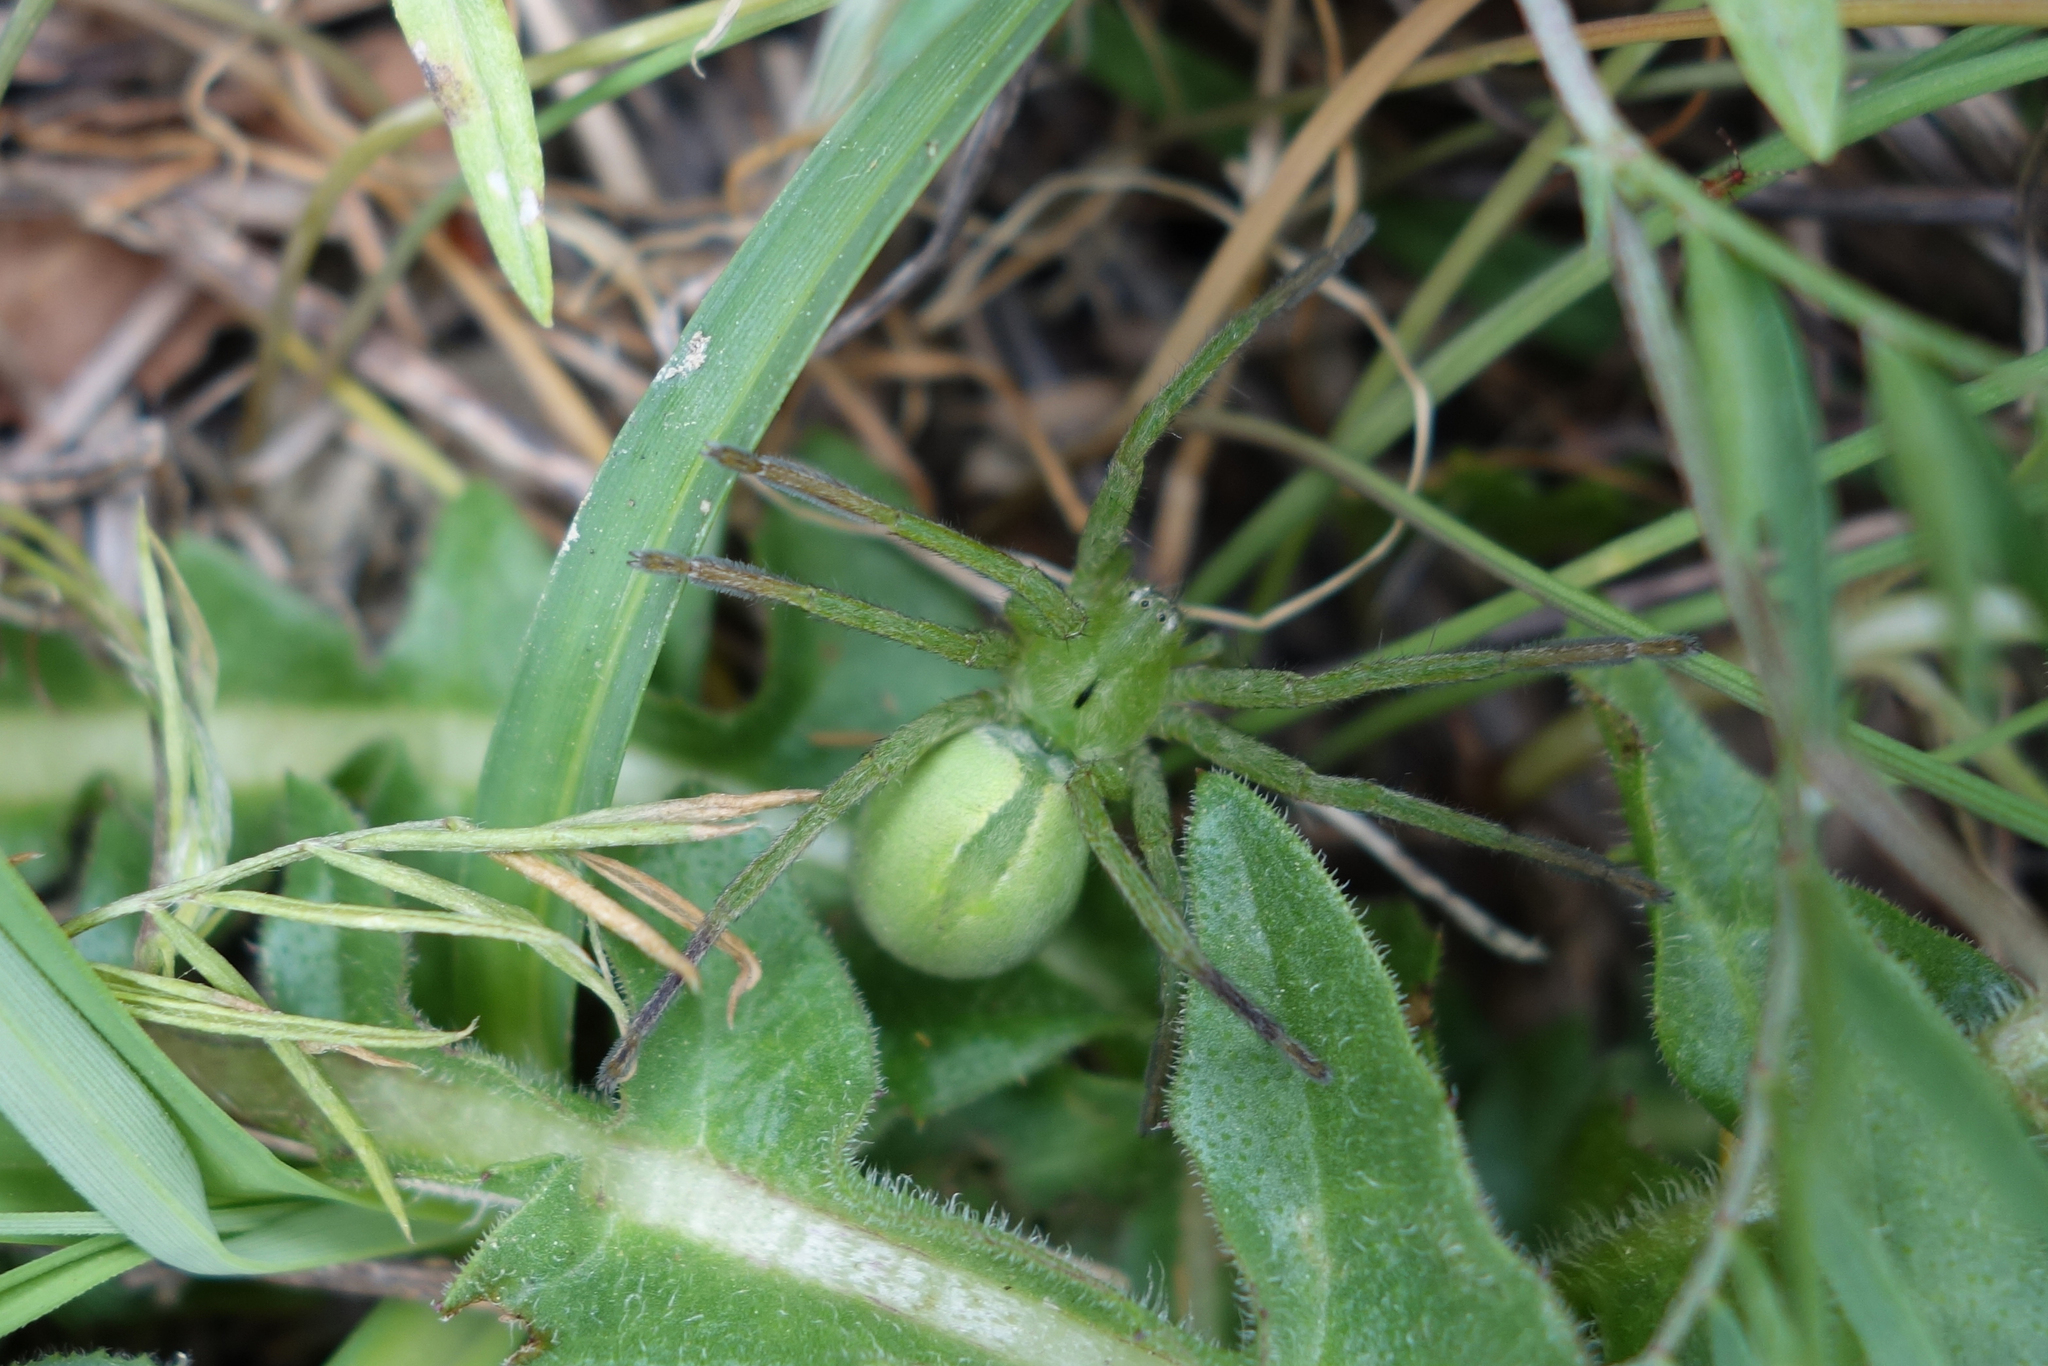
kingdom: Animalia
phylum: Arthropoda
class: Arachnida
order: Araneae
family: Sparassidae
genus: Micrommata
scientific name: Micrommata ligurina
